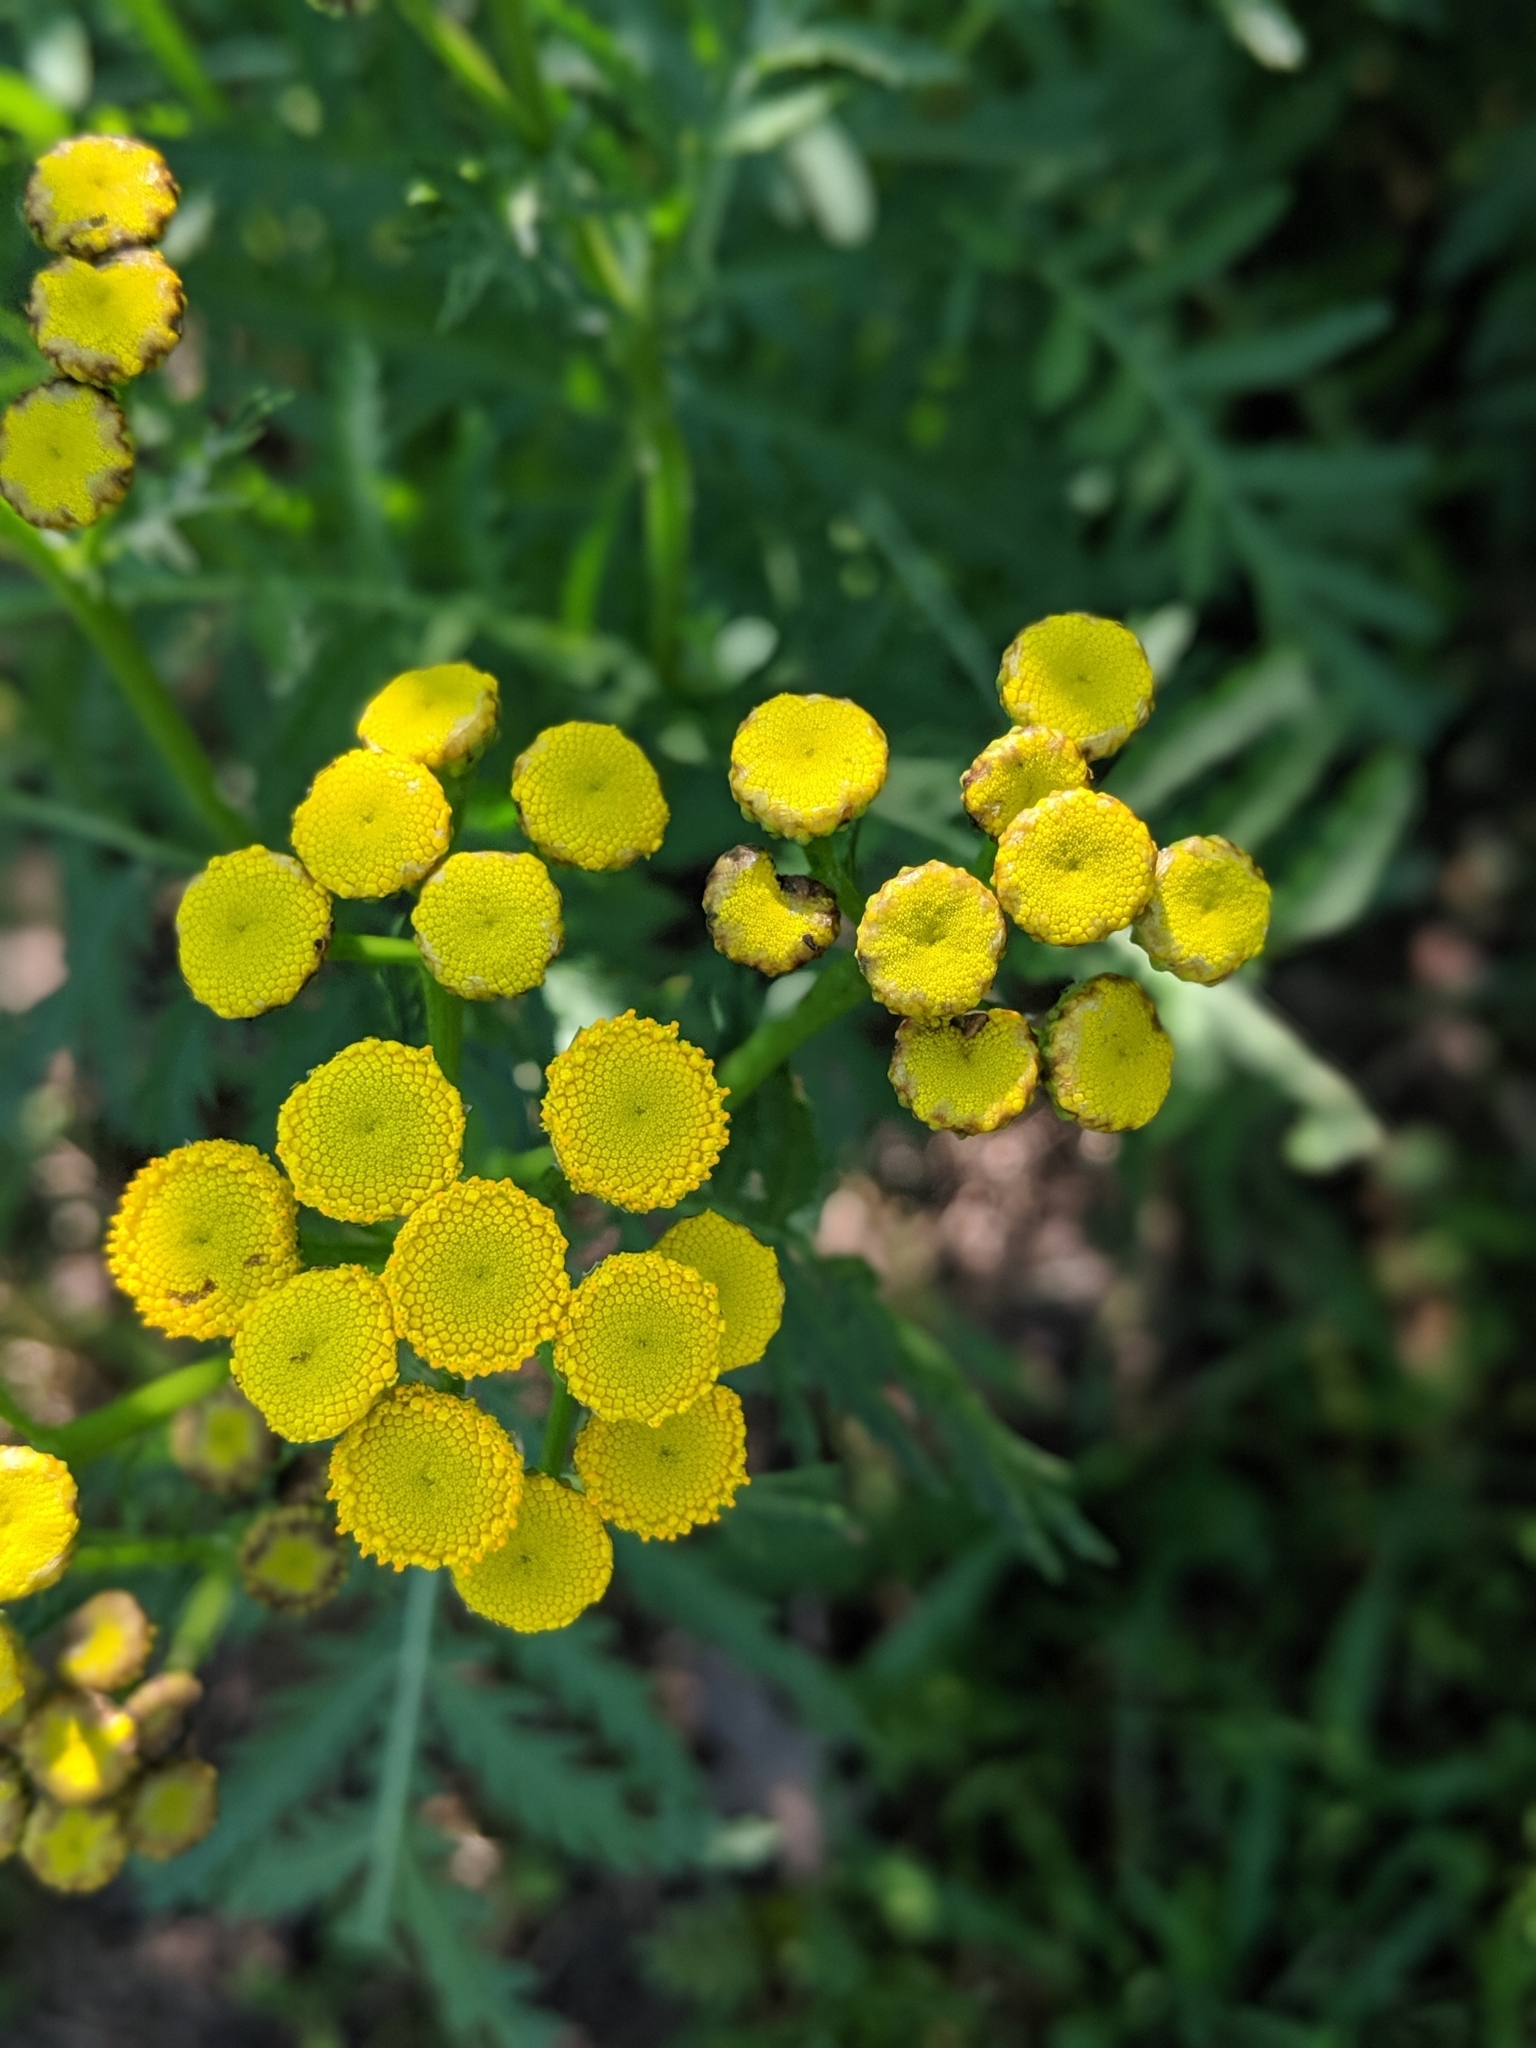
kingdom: Plantae
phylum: Tracheophyta
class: Magnoliopsida
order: Asterales
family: Asteraceae
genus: Tanacetum
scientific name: Tanacetum vulgare
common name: Common tansy
